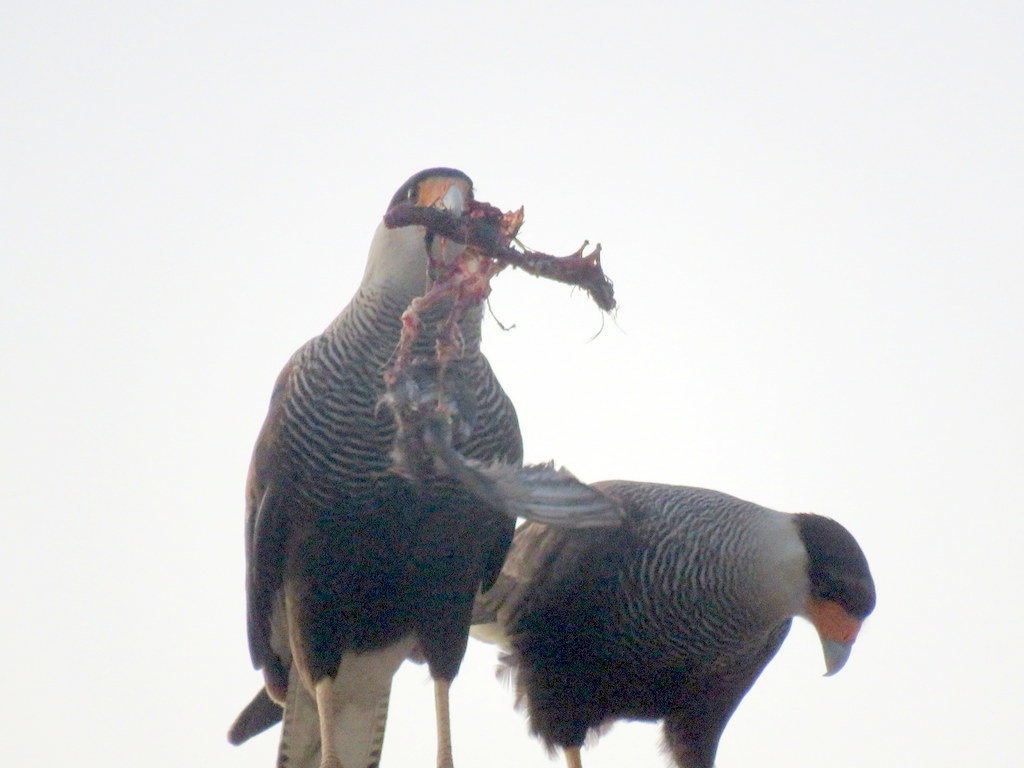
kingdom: Animalia
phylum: Chordata
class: Aves
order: Falconiformes
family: Falconidae
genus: Caracara
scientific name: Caracara plancus
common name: Southern caracara
